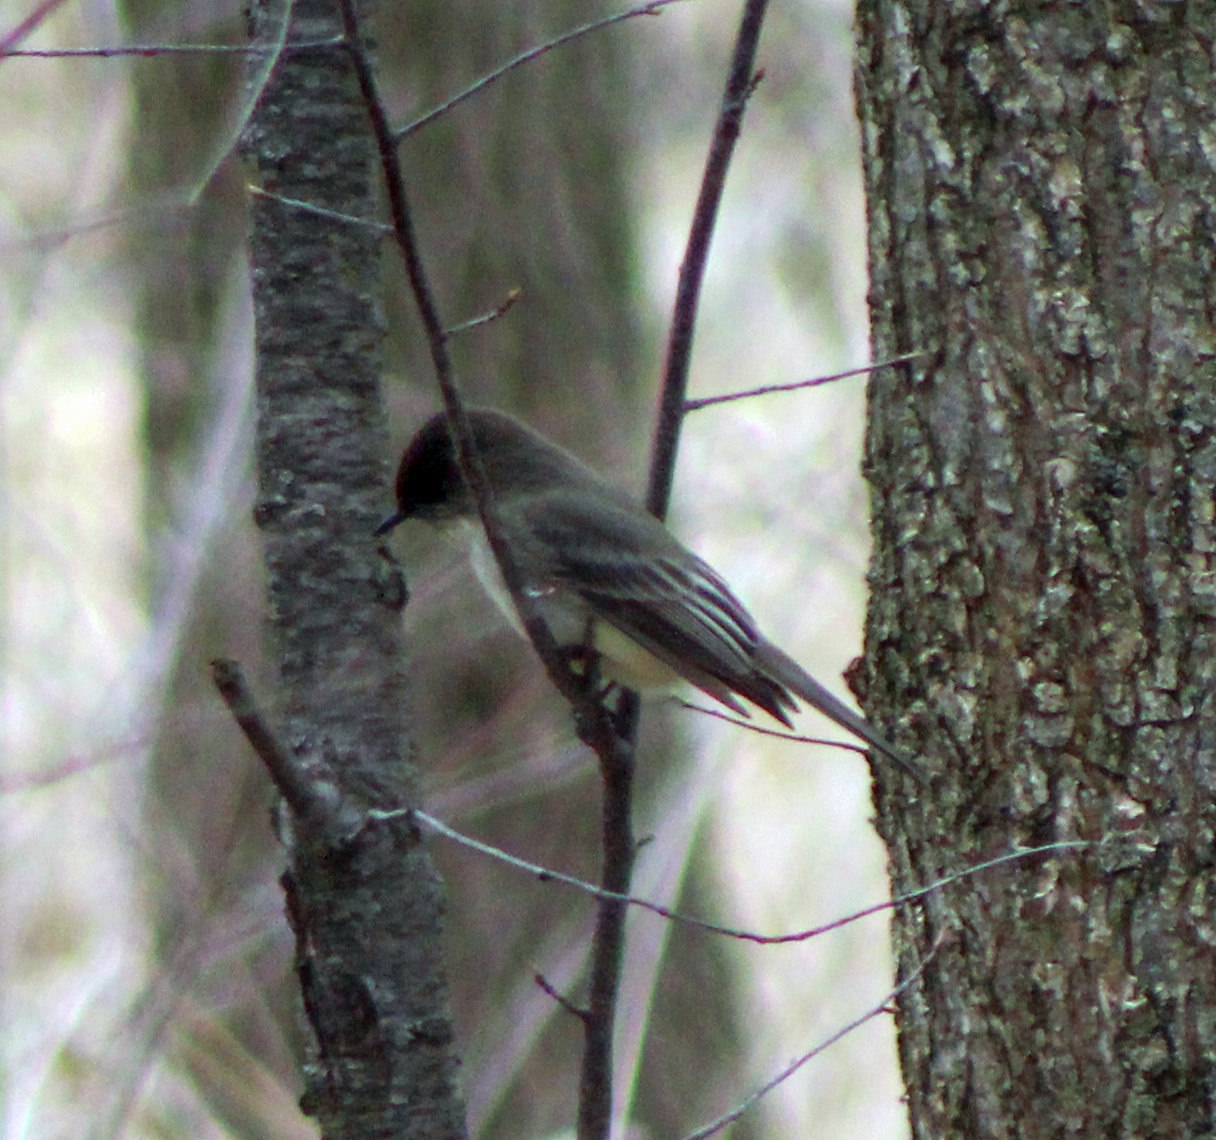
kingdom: Animalia
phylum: Chordata
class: Aves
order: Passeriformes
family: Tyrannidae
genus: Sayornis
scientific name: Sayornis phoebe
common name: Eastern phoebe
